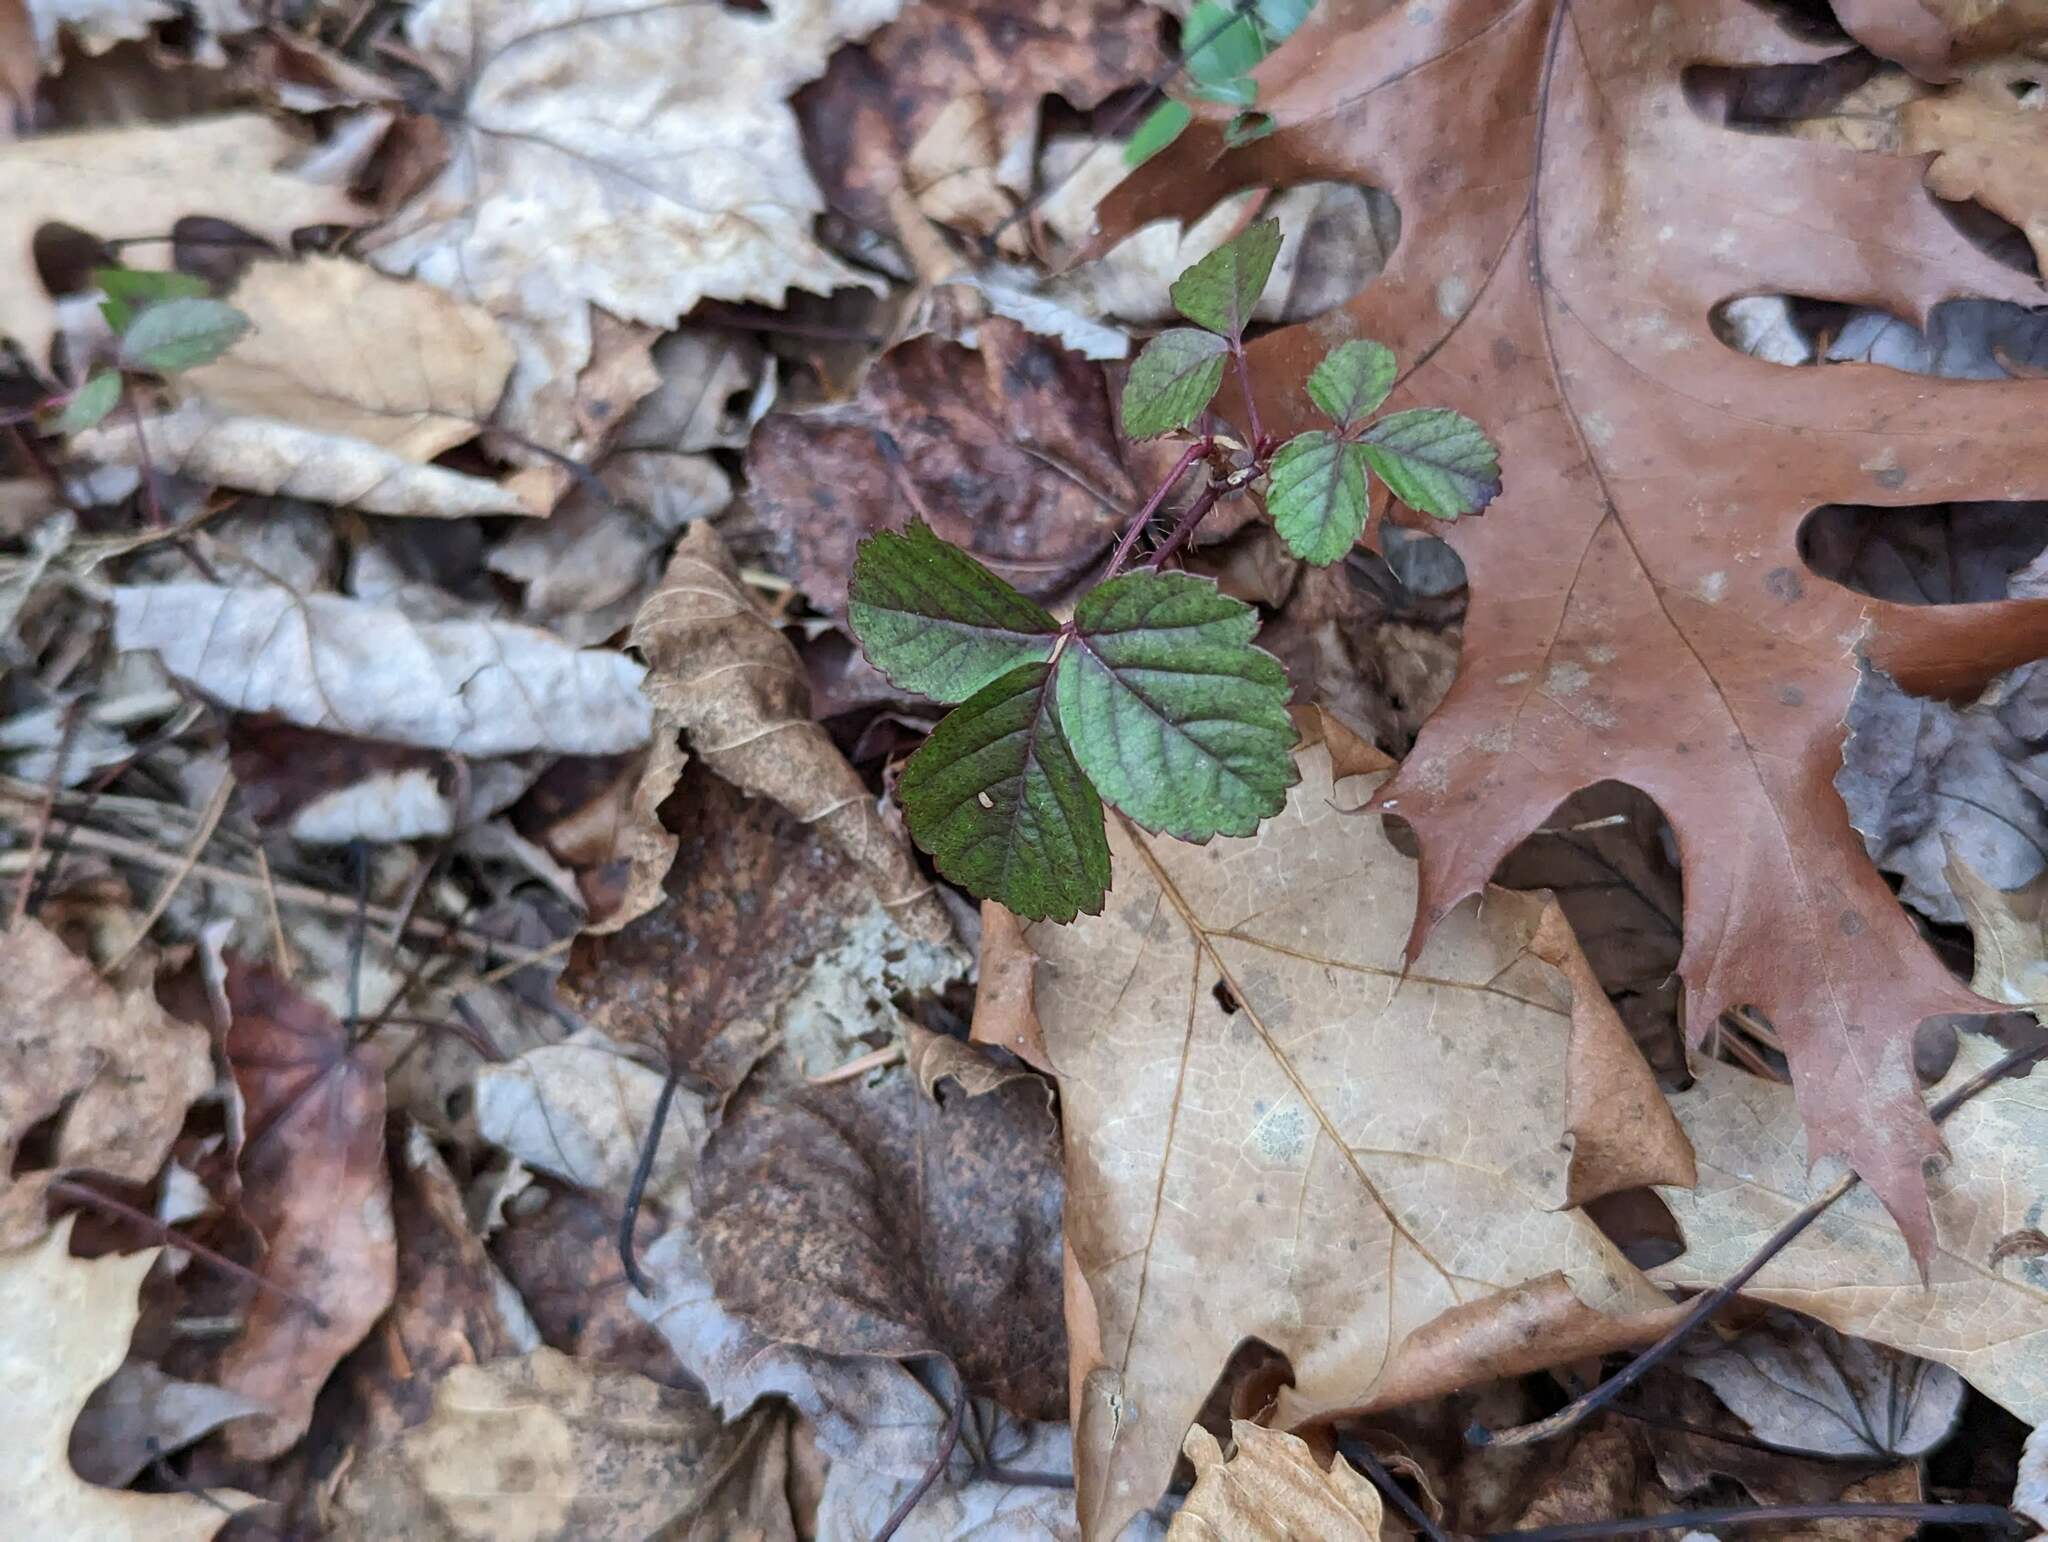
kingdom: Plantae
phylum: Tracheophyta
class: Magnoliopsida
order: Rosales
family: Rosaceae
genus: Rubus
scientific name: Rubus hispidus
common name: Running blackberry
